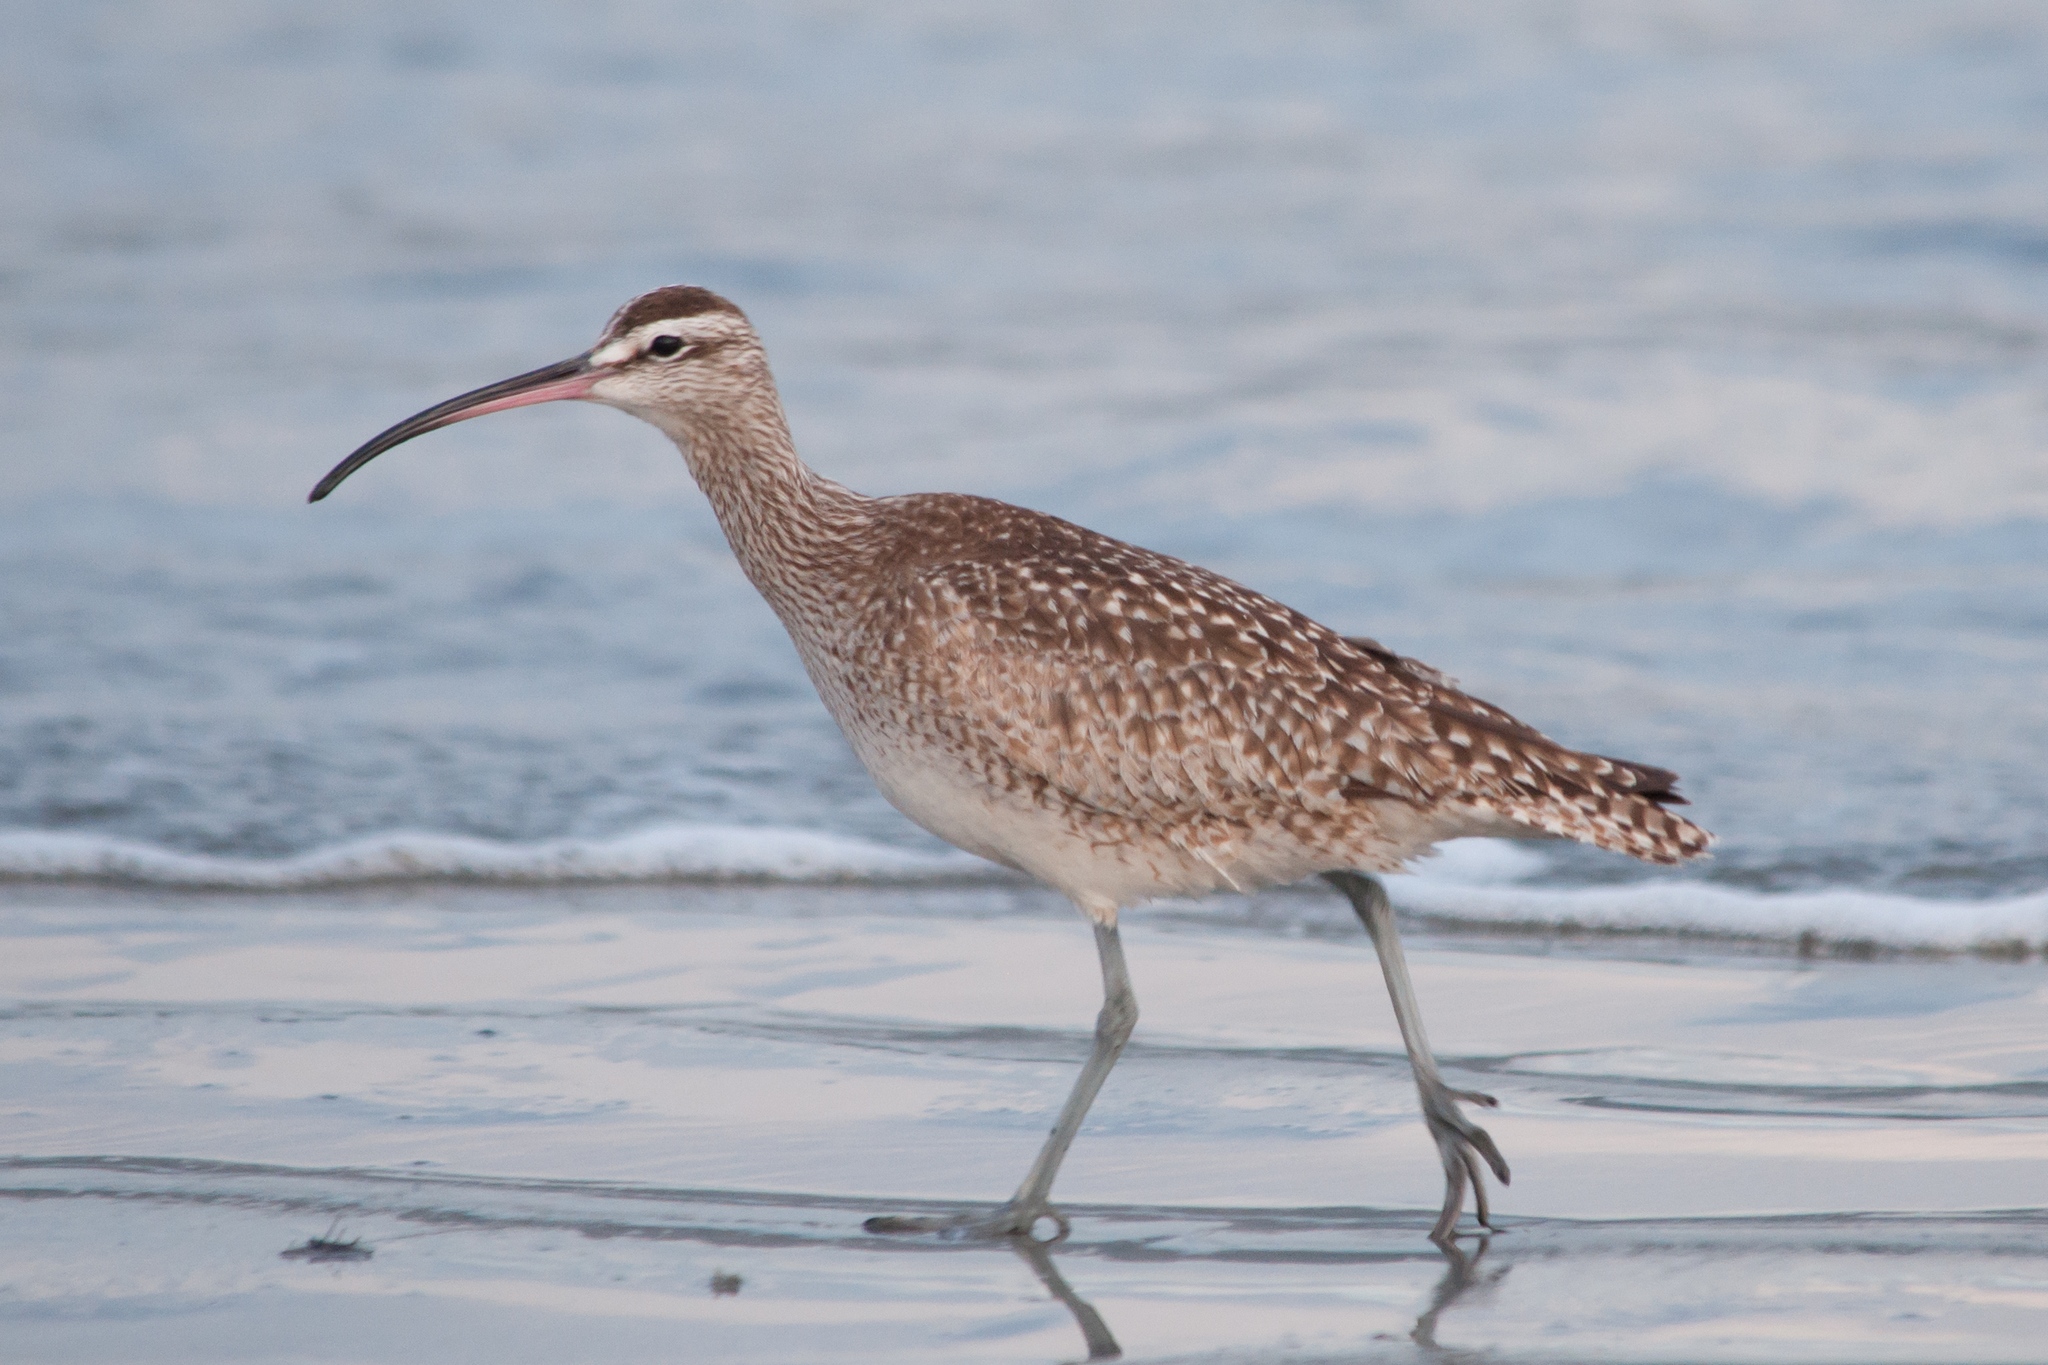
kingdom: Animalia
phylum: Chordata
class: Aves
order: Charadriiformes
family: Scolopacidae
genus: Numenius
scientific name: Numenius phaeopus
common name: Whimbrel
